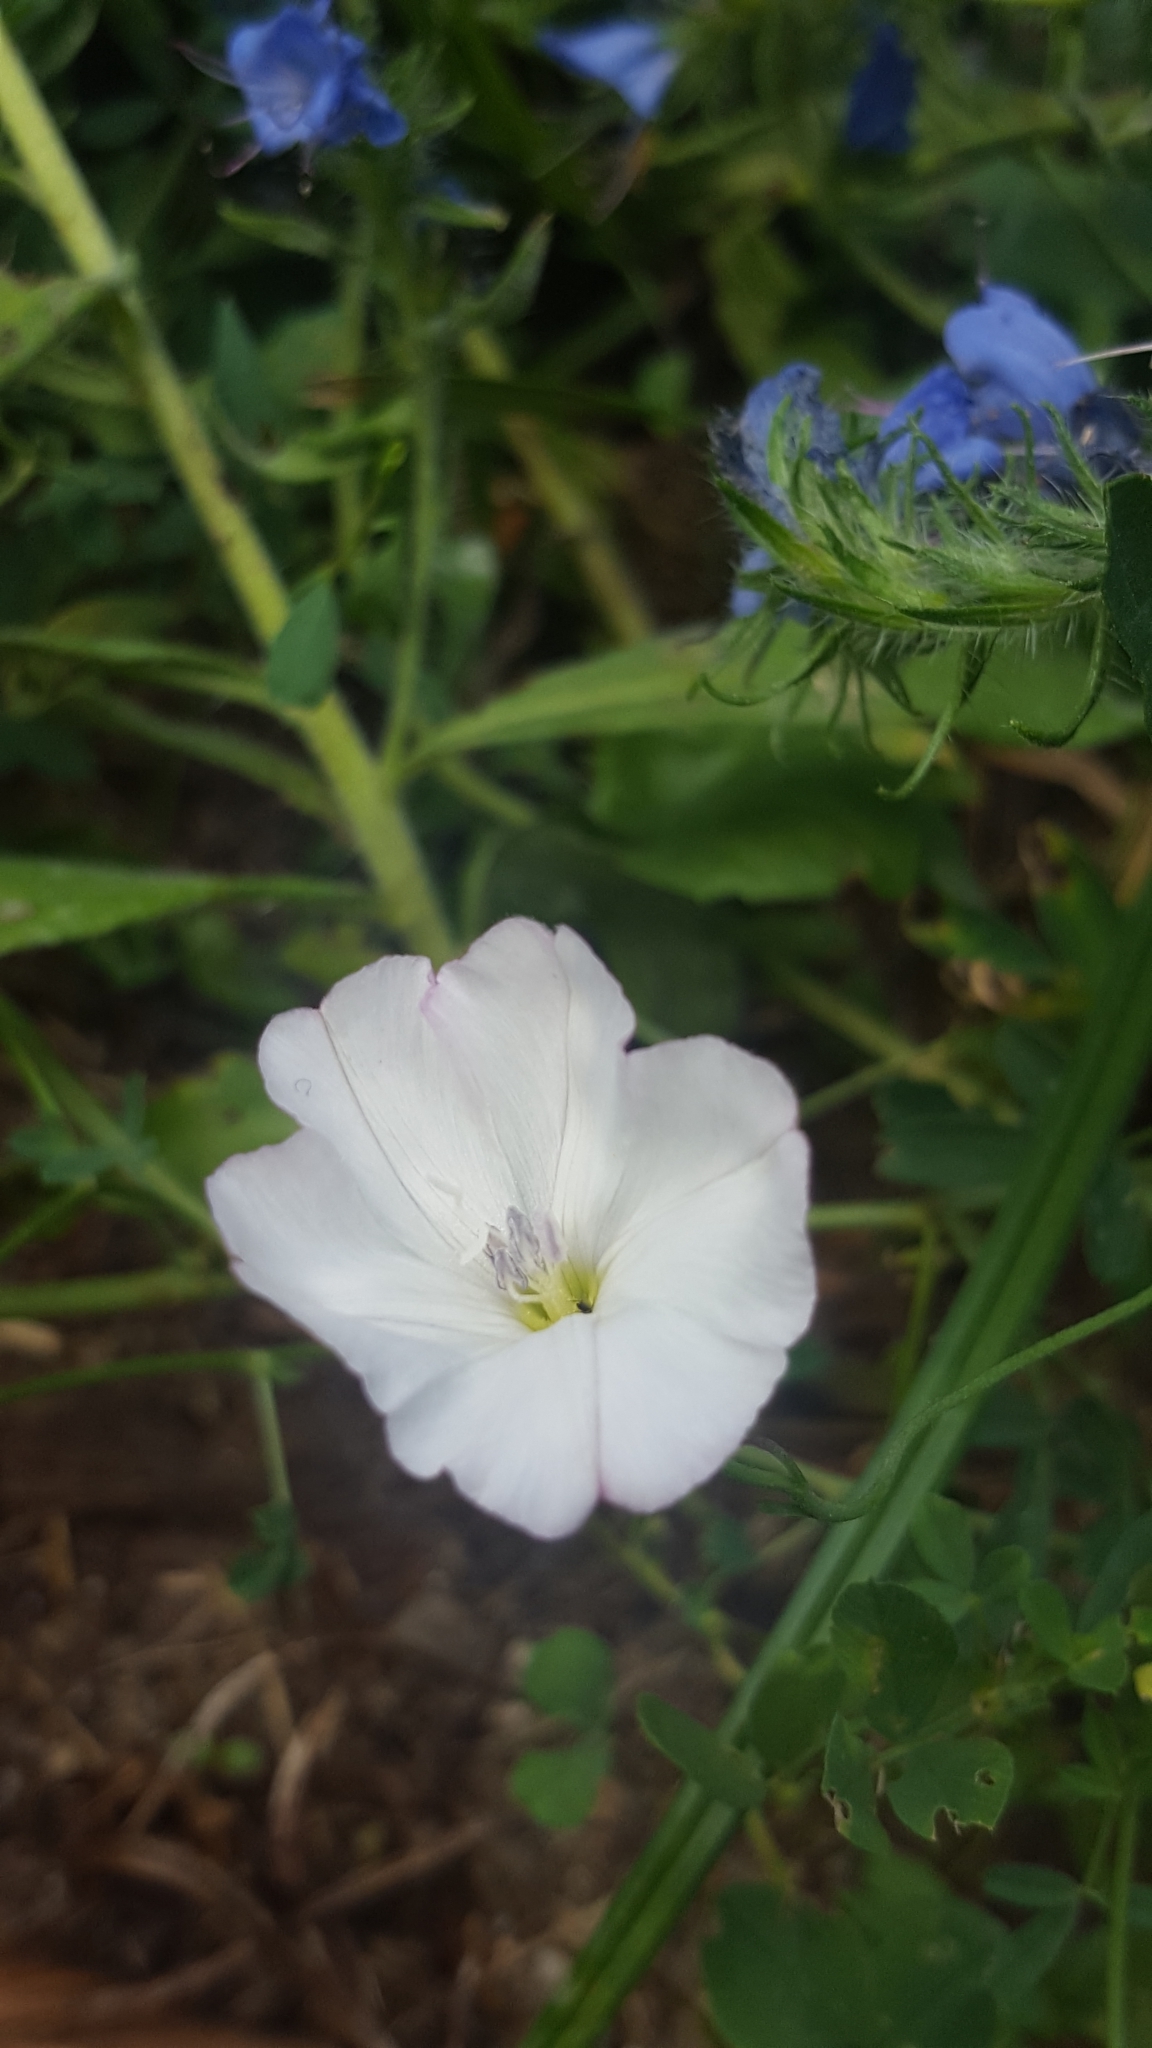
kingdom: Plantae
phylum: Tracheophyta
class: Magnoliopsida
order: Solanales
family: Convolvulaceae
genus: Convolvulus
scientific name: Convolvulus arvensis
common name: Field bindweed
